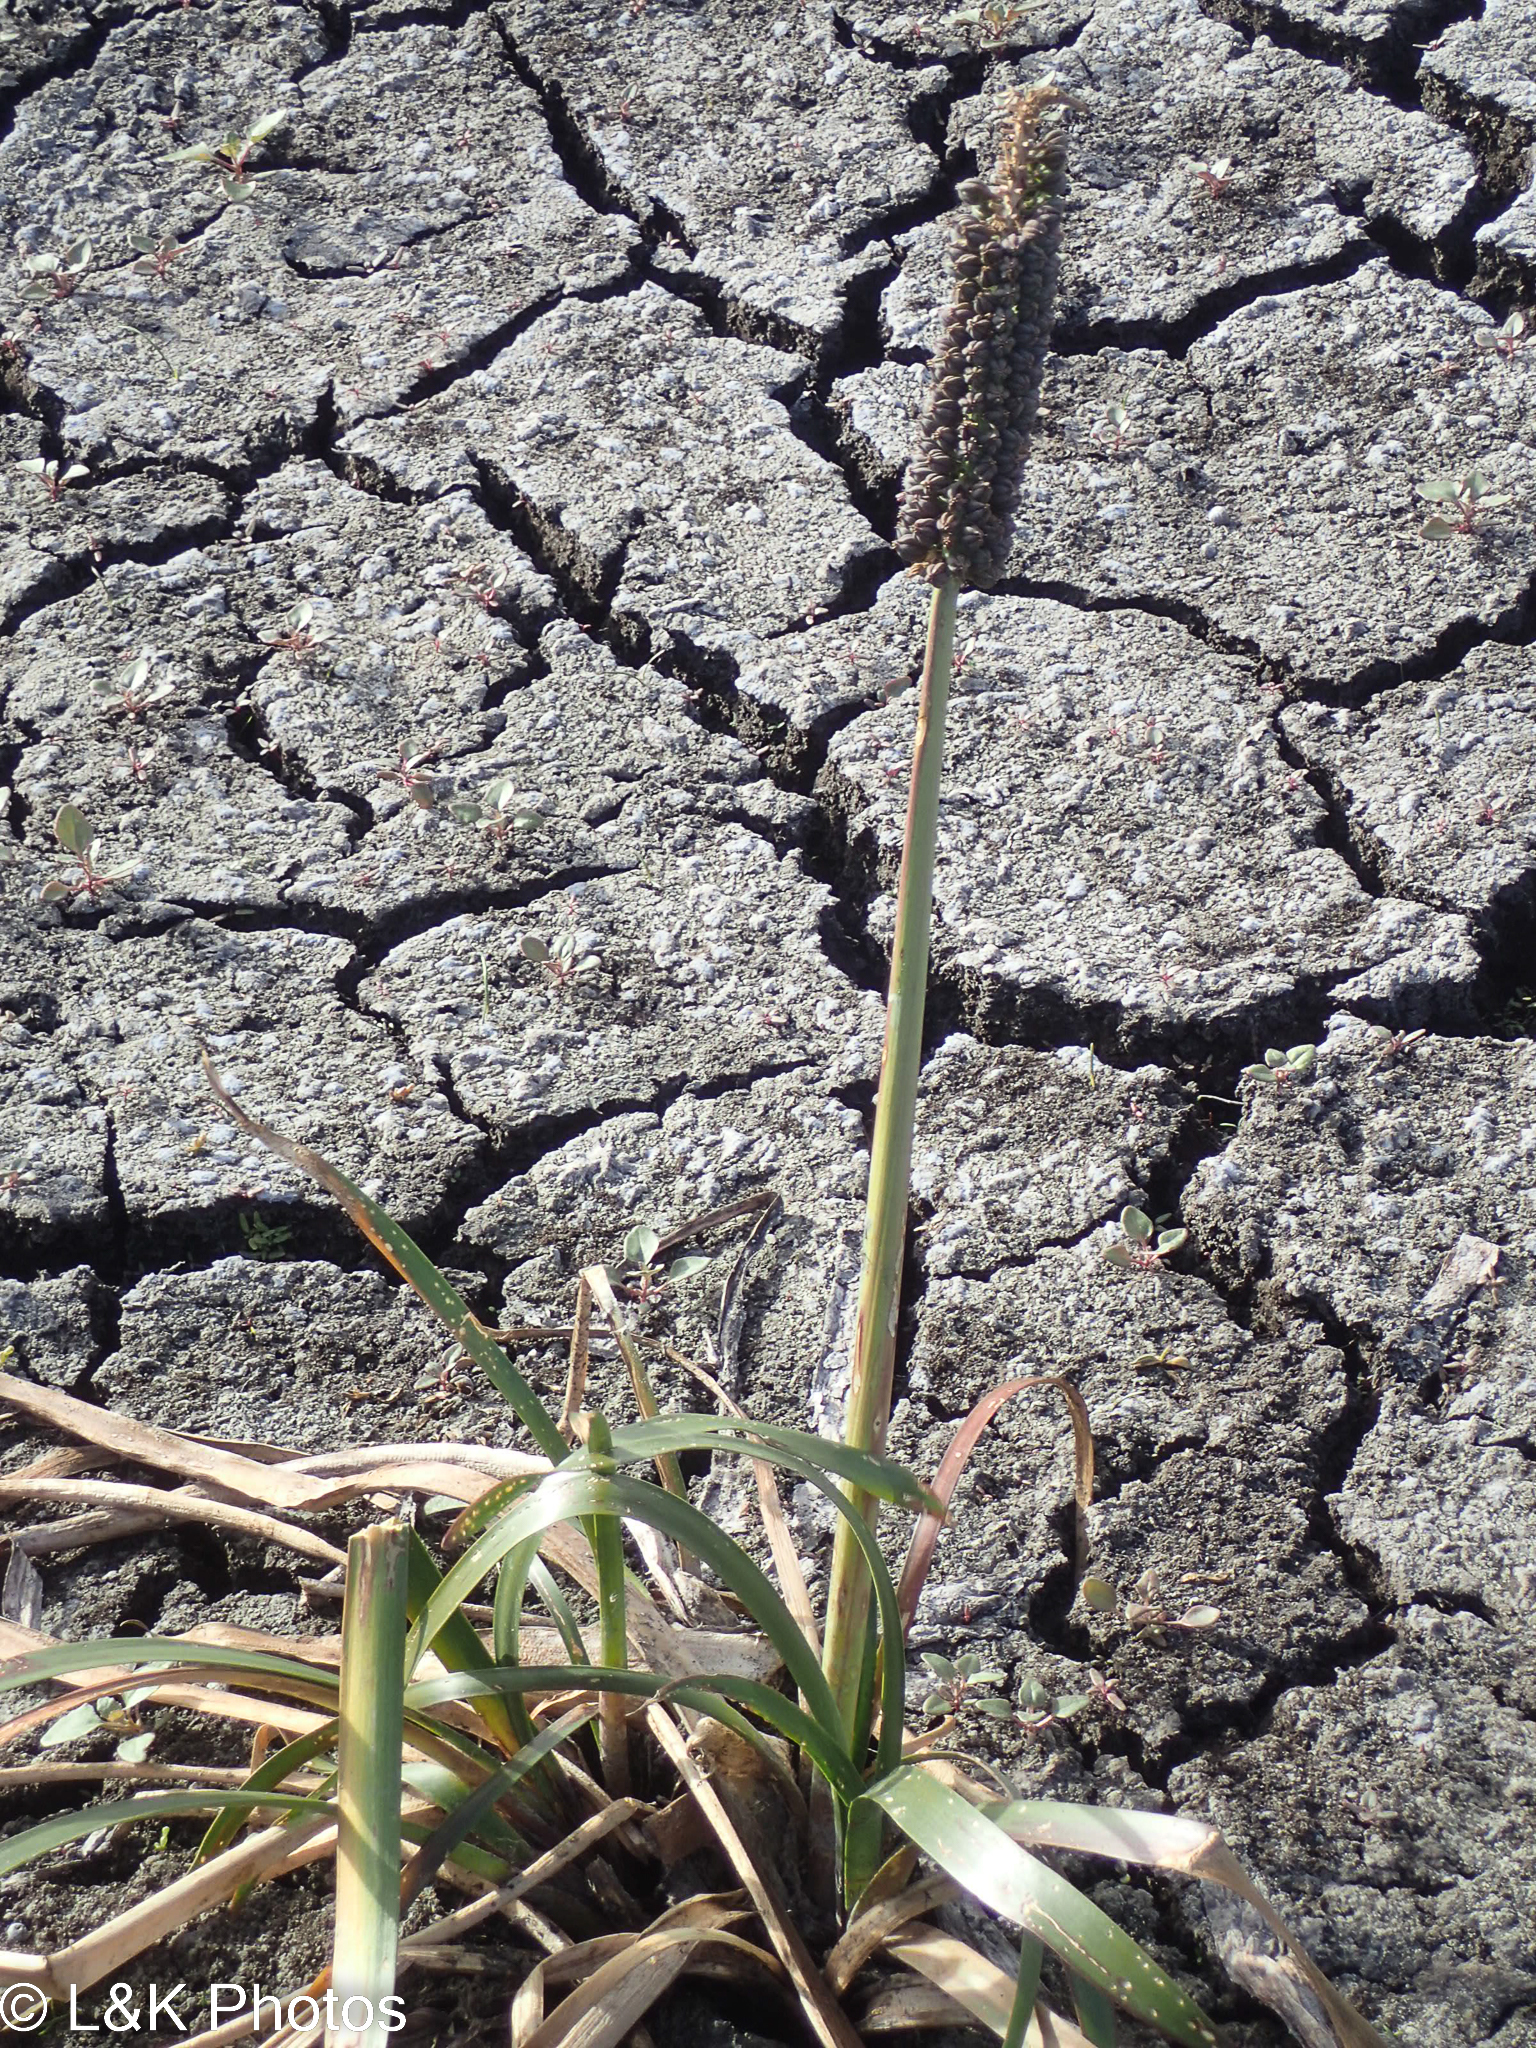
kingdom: Plantae
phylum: Tracheophyta
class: Liliopsida
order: Alismatales
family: Juncaginaceae
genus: Cycnogeton
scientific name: Cycnogeton procerum
